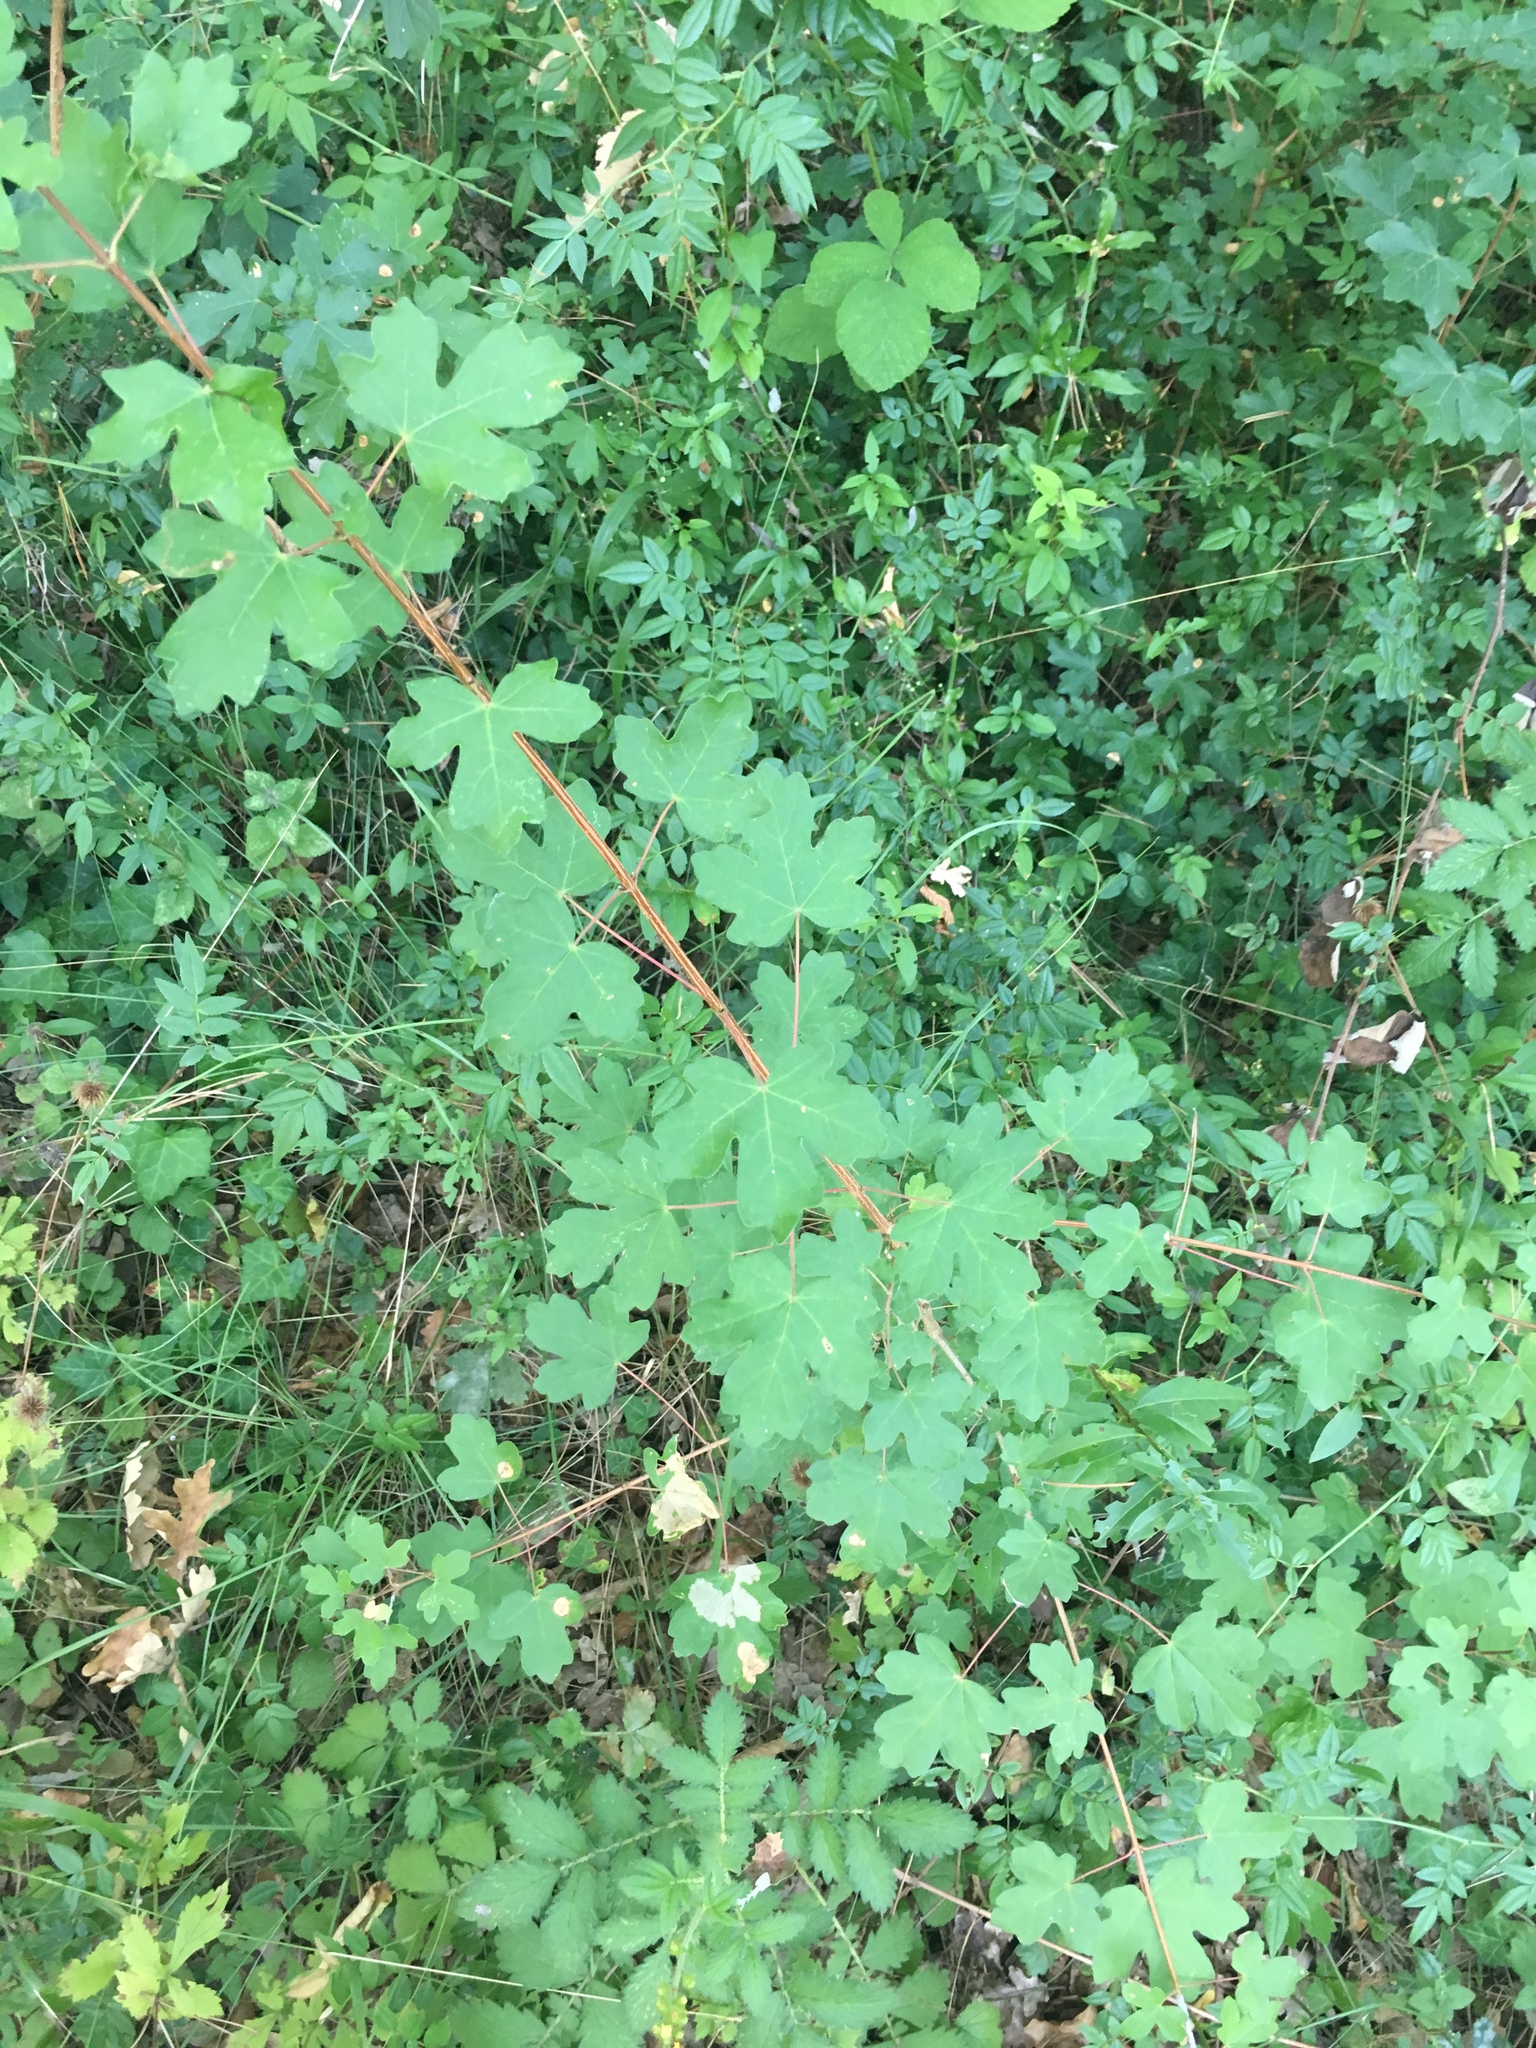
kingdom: Plantae
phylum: Tracheophyta
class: Magnoliopsida
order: Sapindales
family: Sapindaceae
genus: Acer
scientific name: Acer campestre
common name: Field maple
